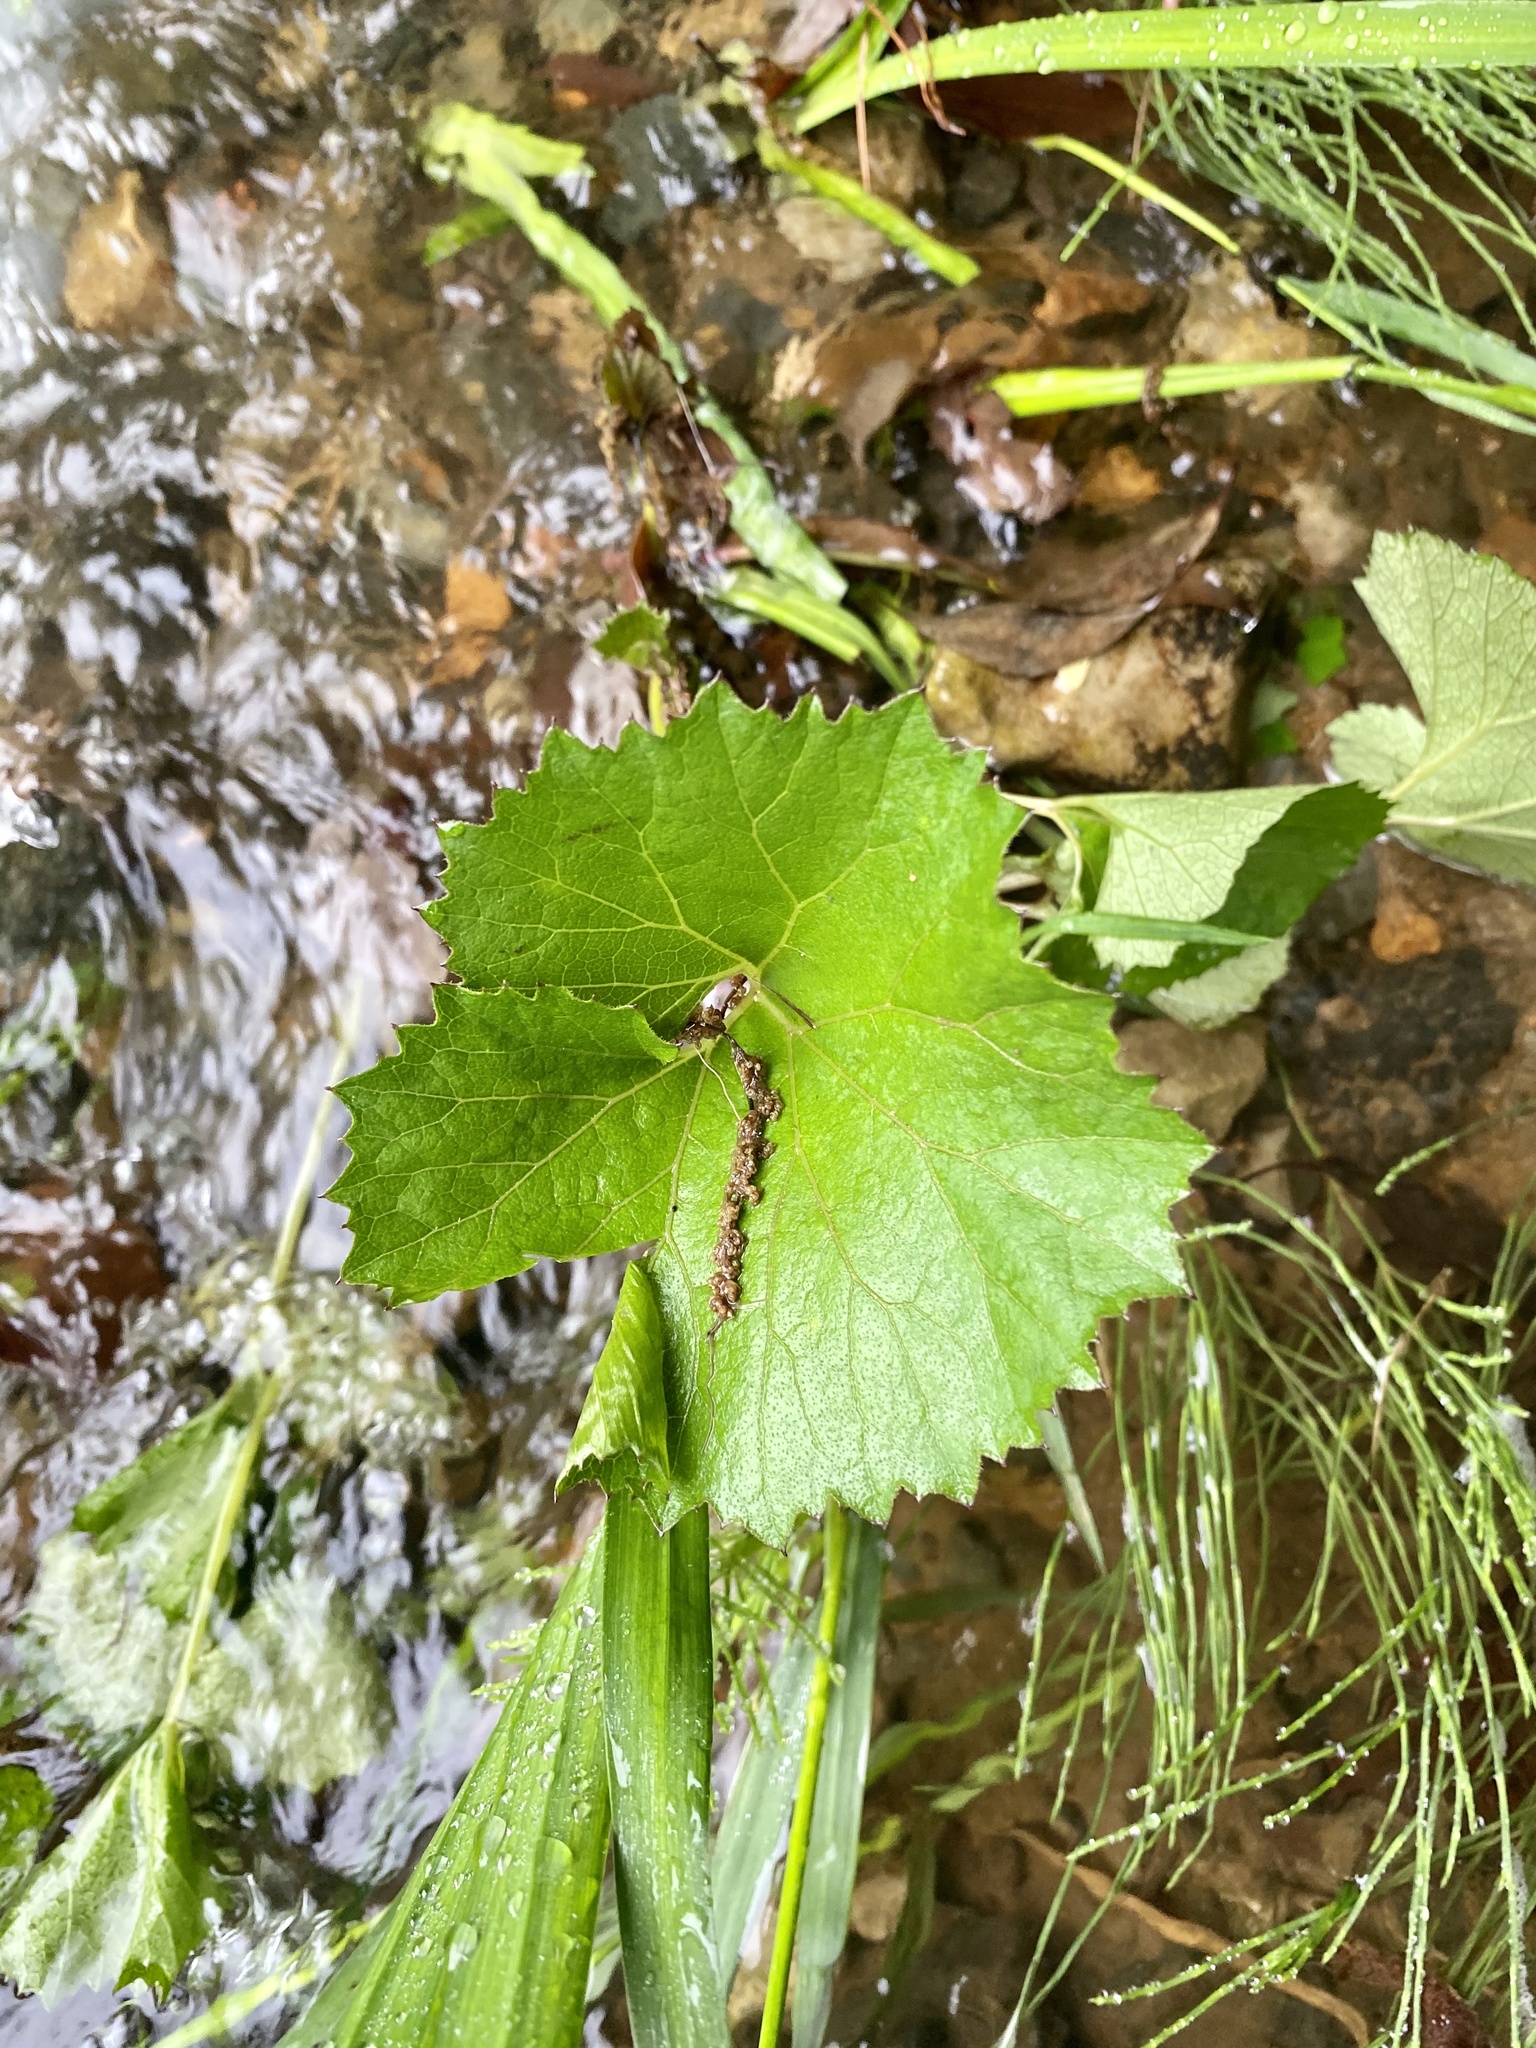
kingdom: Plantae
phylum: Tracheophyta
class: Magnoliopsida
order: Asterales
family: Asteraceae
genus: Petasites
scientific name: Petasites japonicus
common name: Giant butterbur
